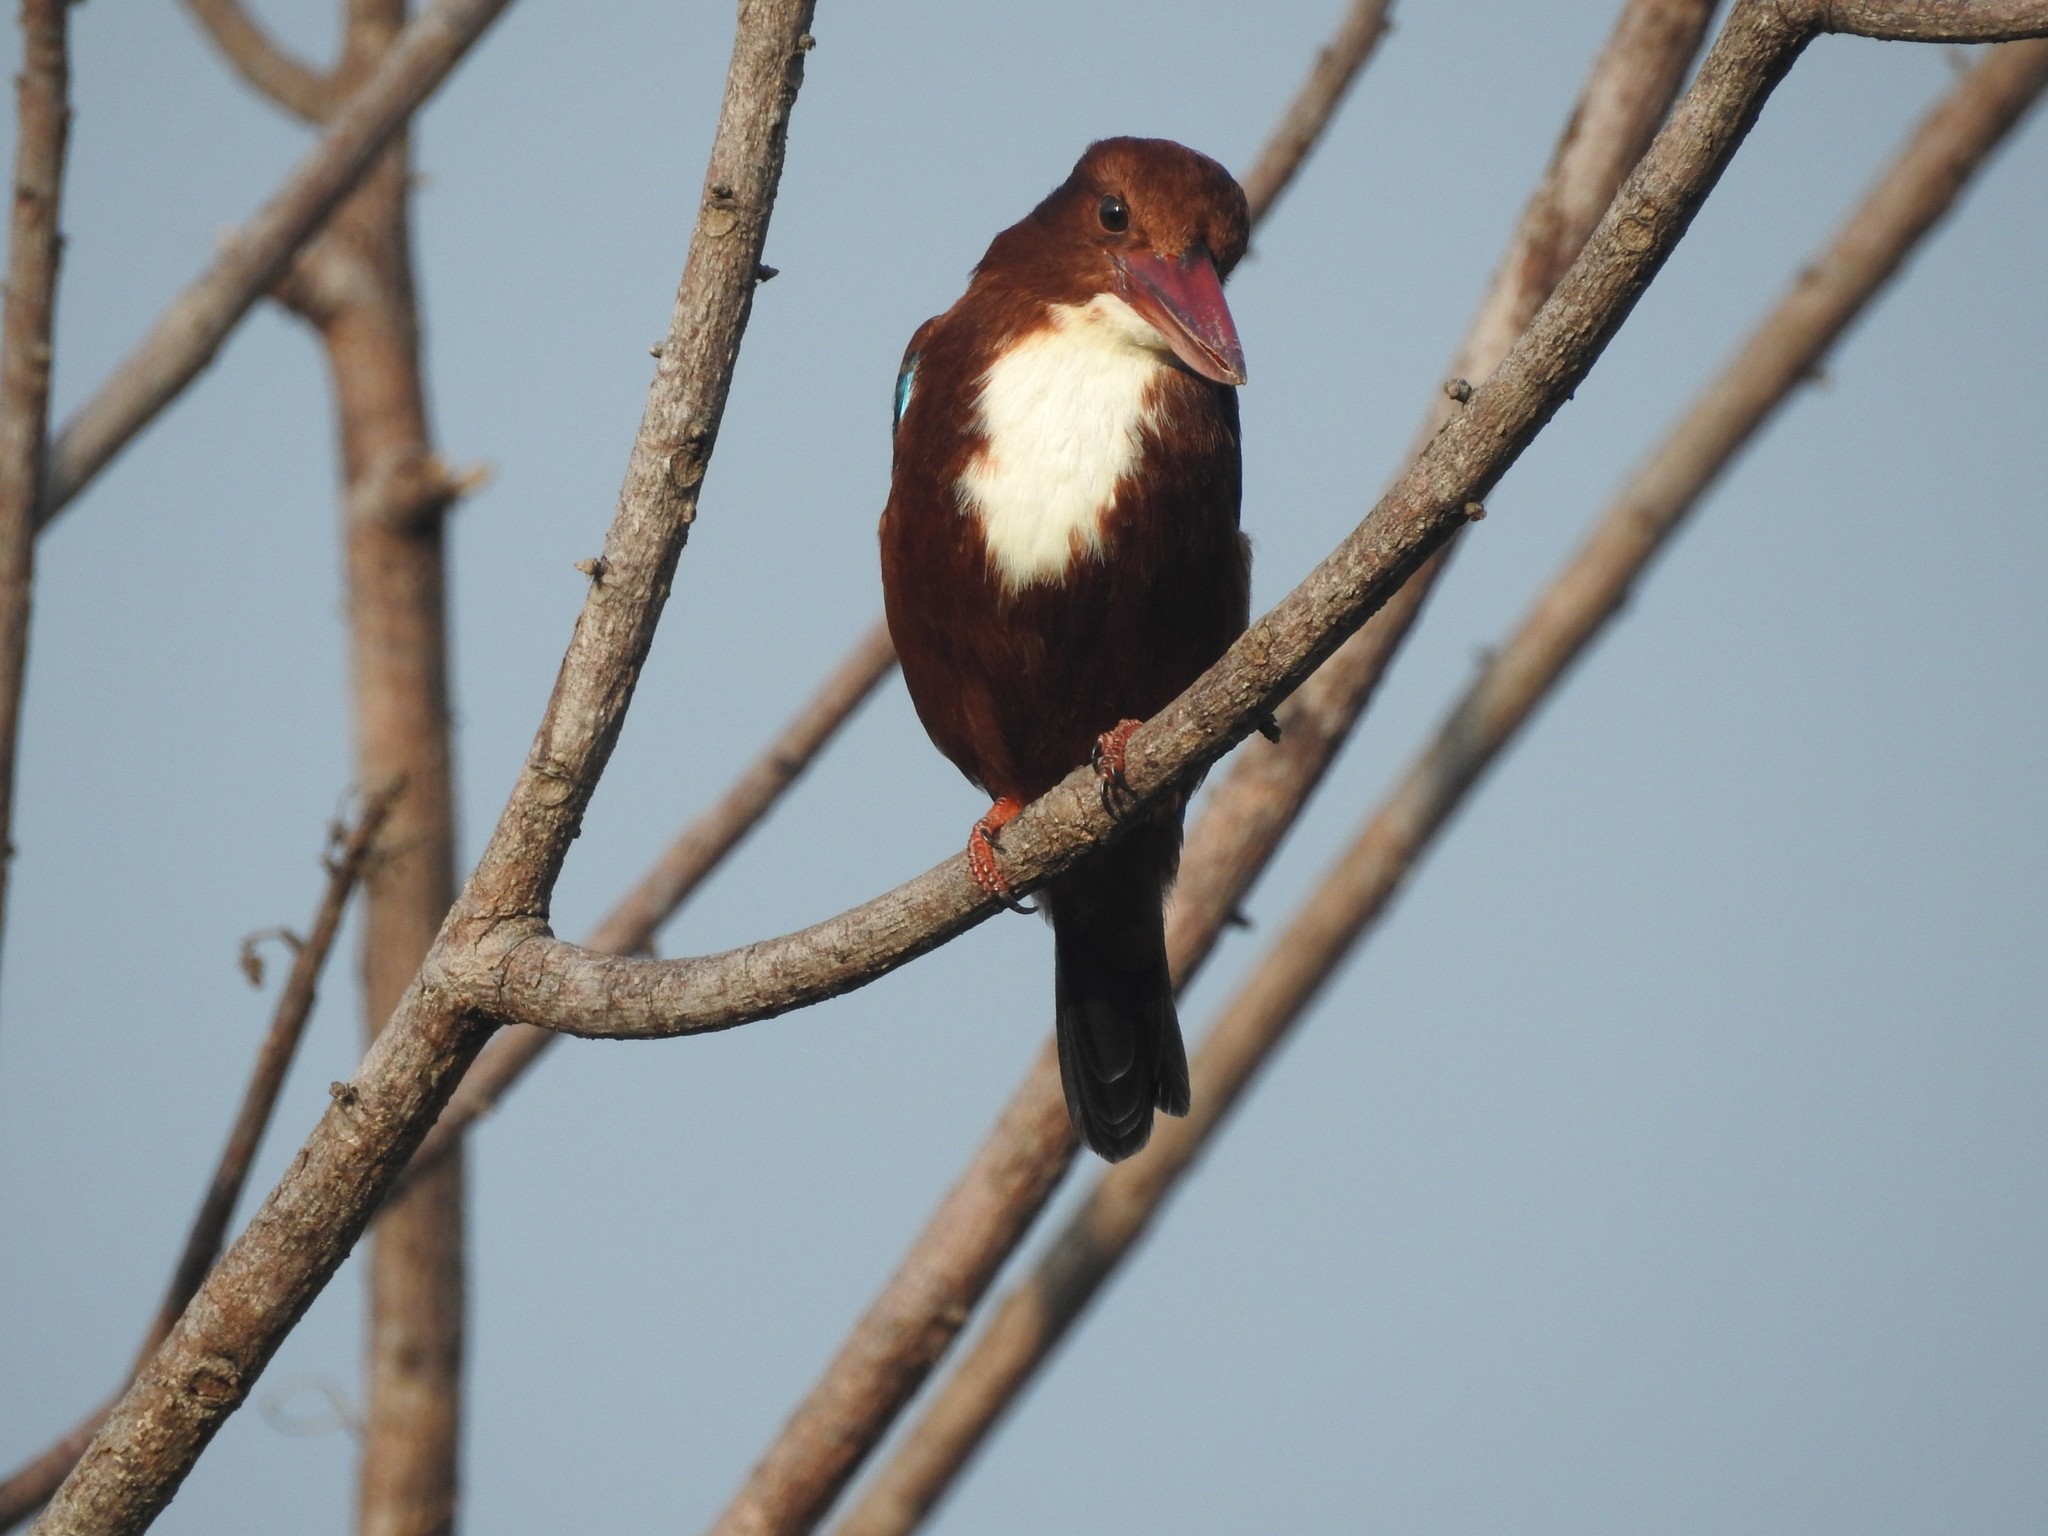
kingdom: Animalia
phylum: Chordata
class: Aves
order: Coraciiformes
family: Alcedinidae
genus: Halcyon
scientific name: Halcyon smyrnensis
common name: White-throated kingfisher
